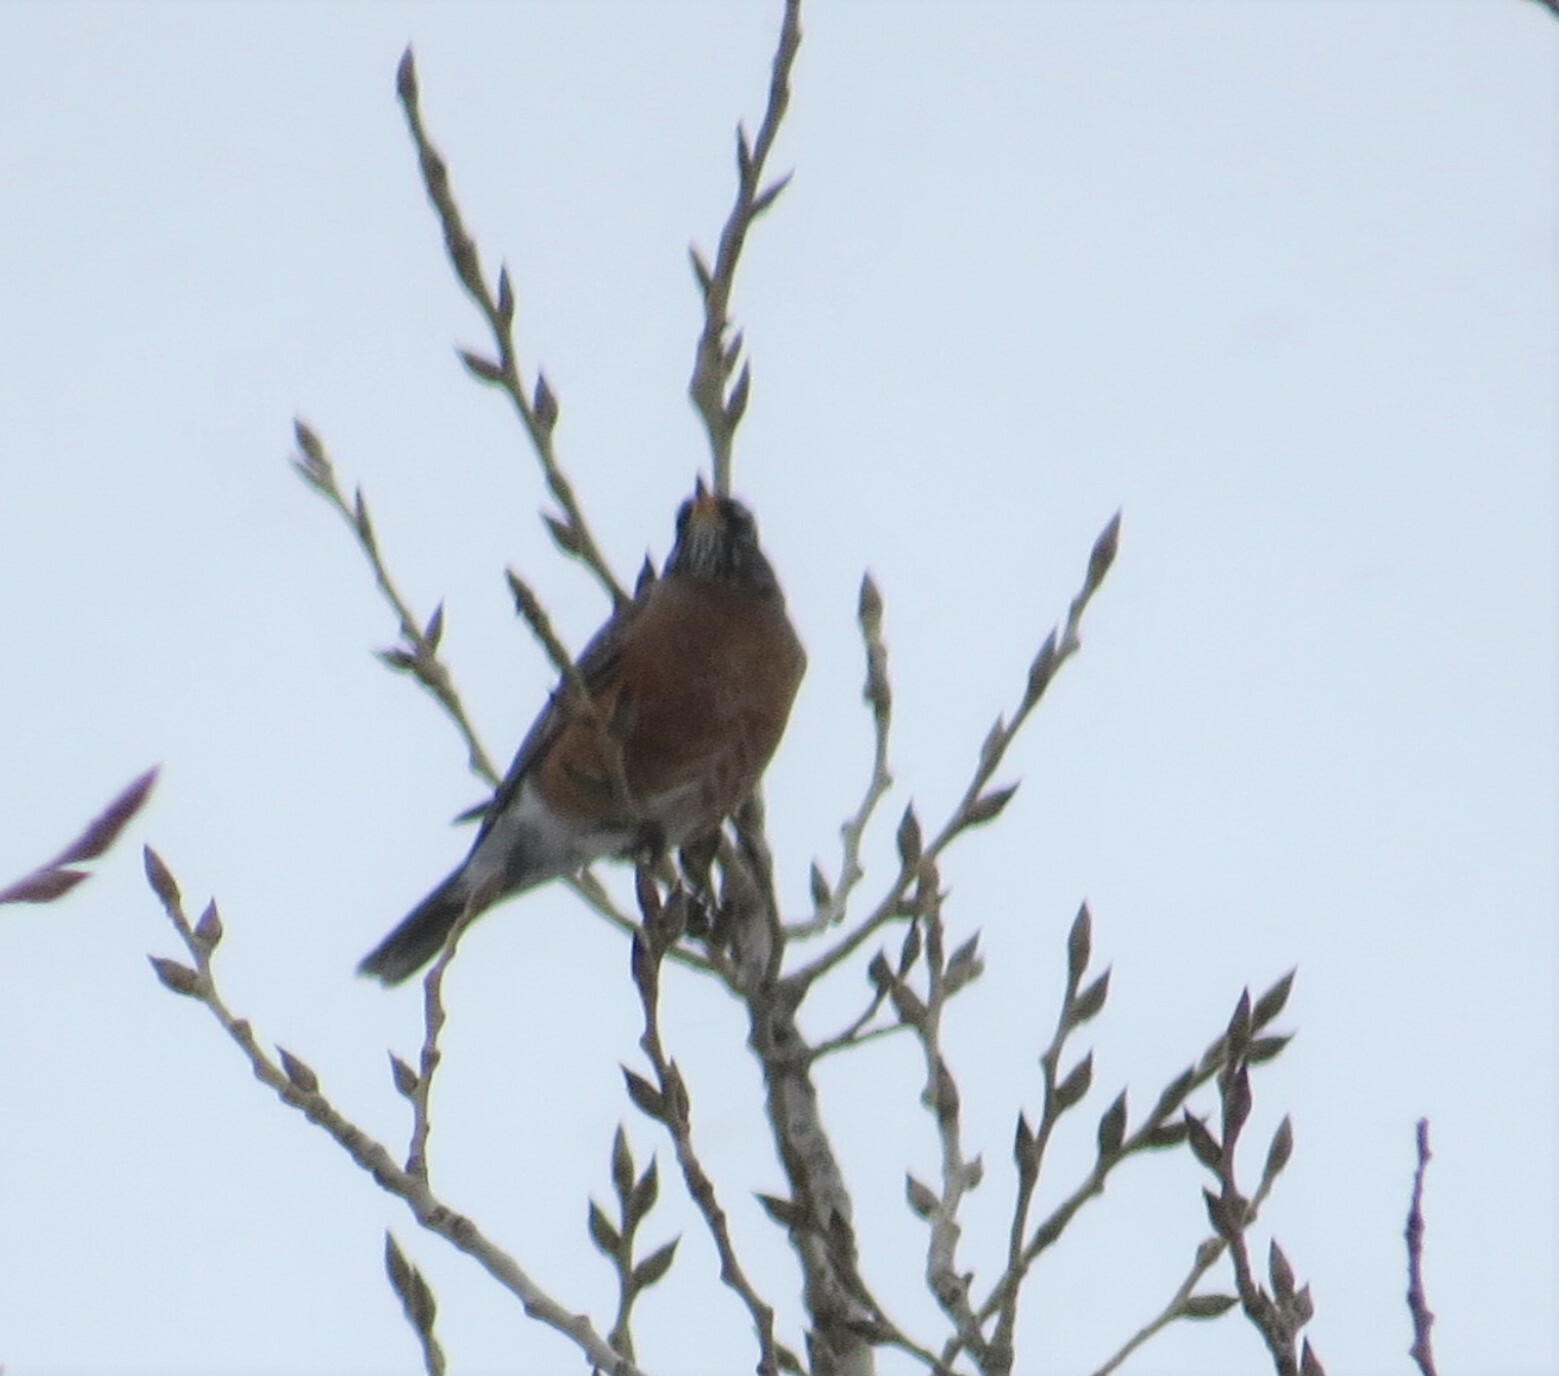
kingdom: Animalia
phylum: Chordata
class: Aves
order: Passeriformes
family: Turdidae
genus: Turdus
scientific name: Turdus migratorius
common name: American robin
